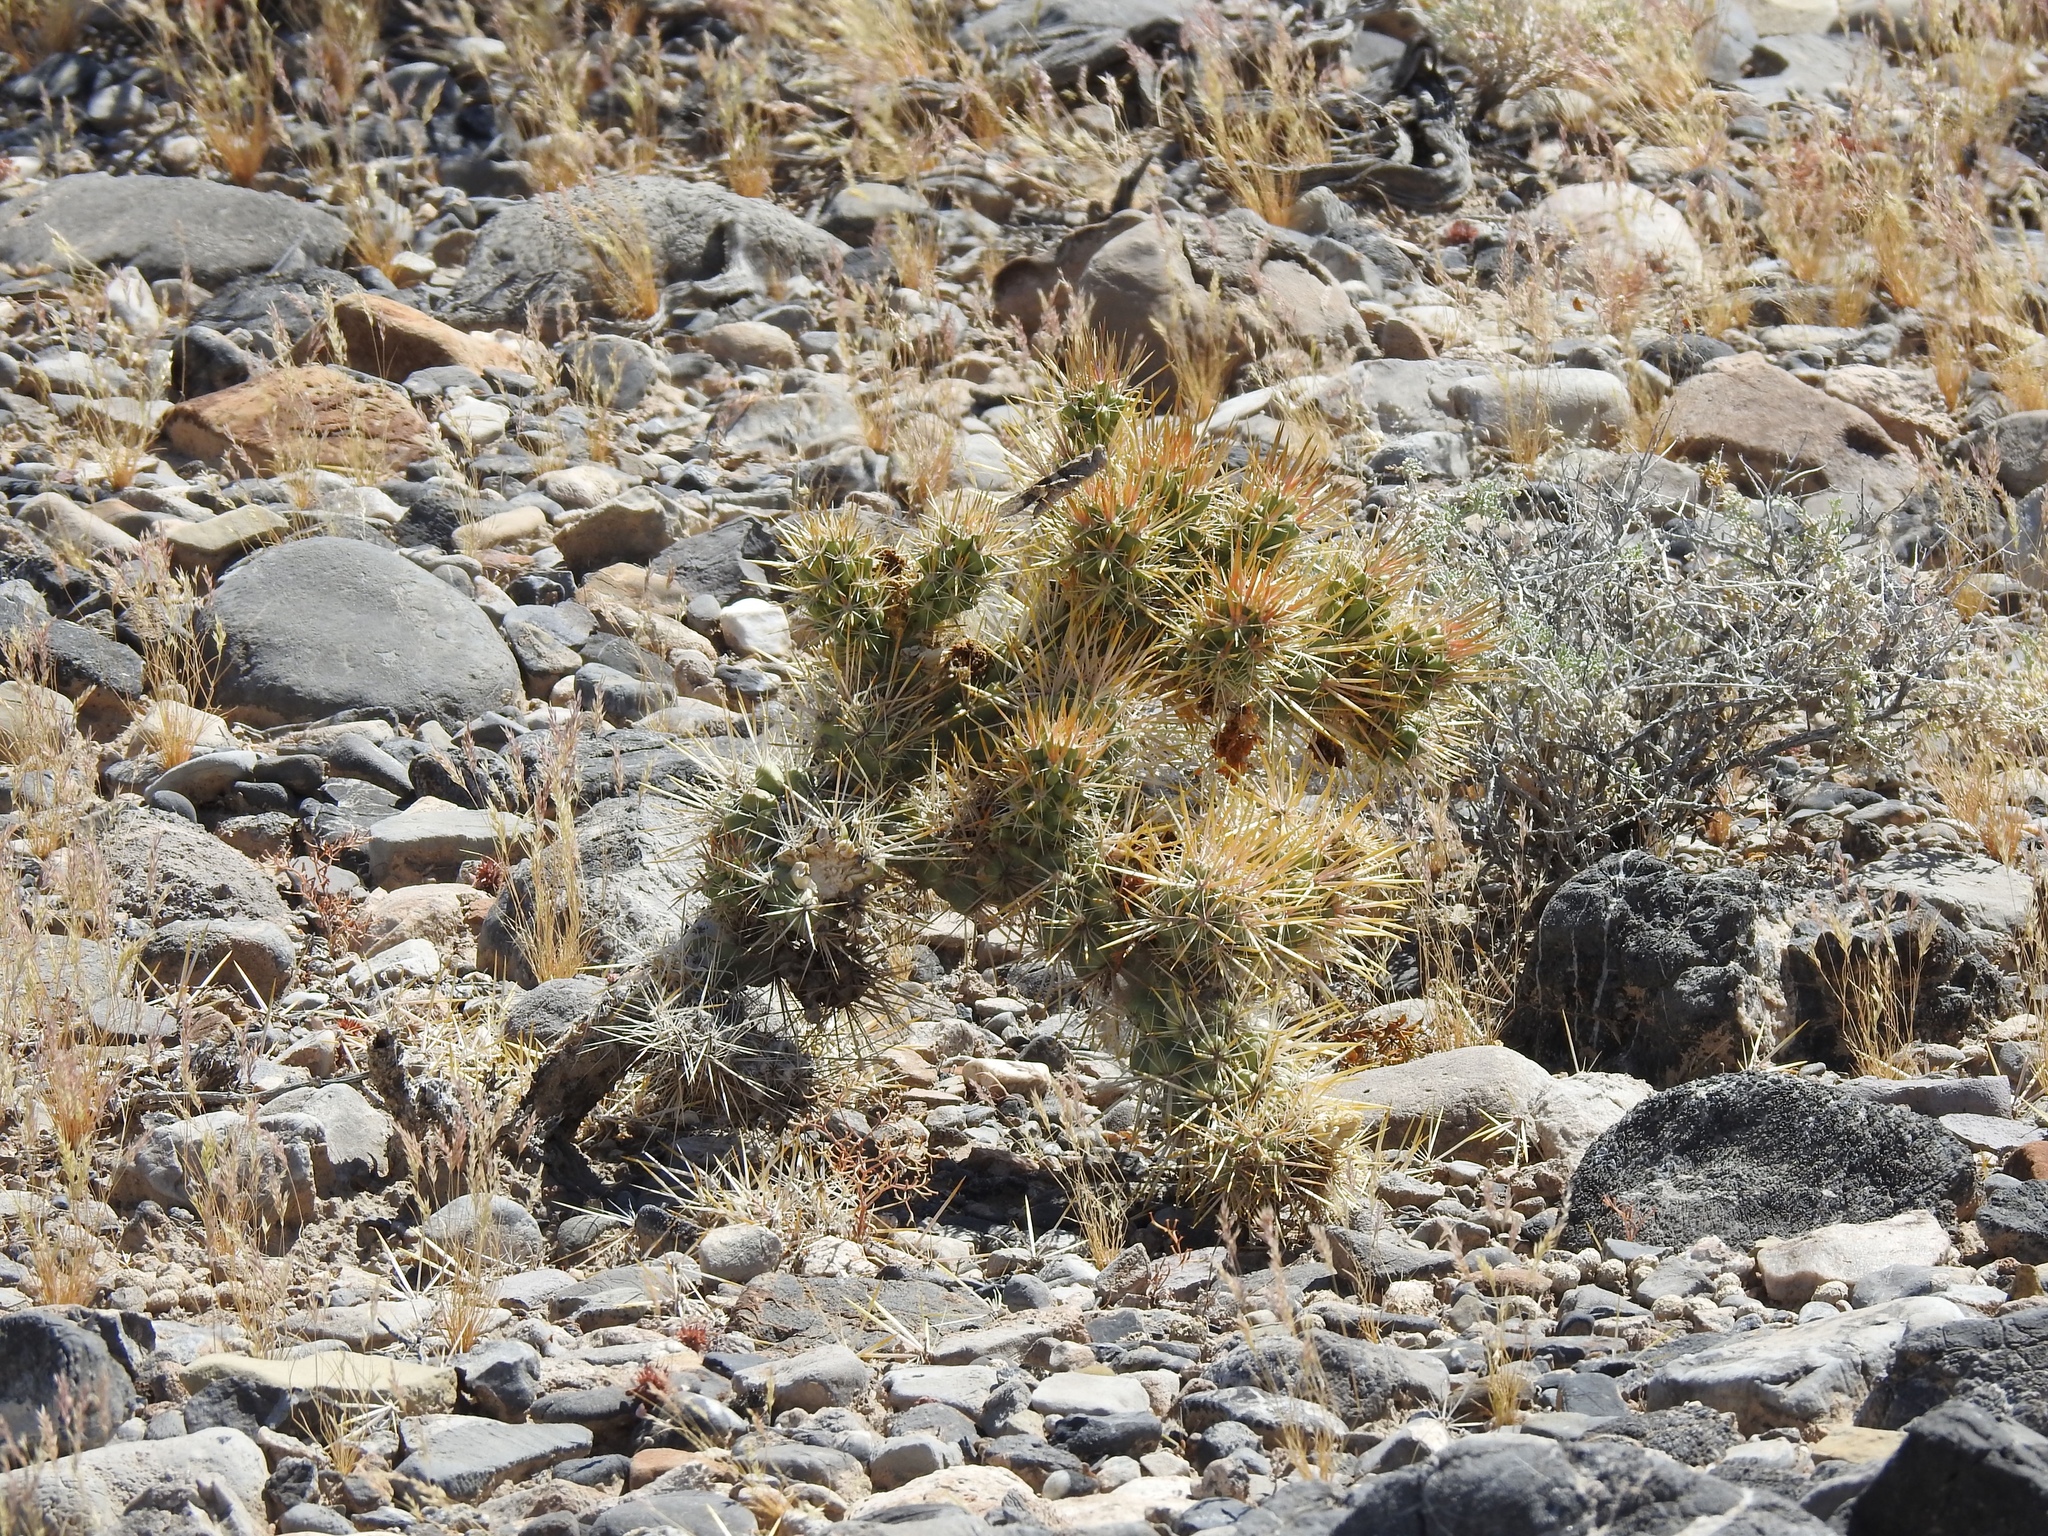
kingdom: Plantae
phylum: Tracheophyta
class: Magnoliopsida
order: Caryophyllales
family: Cactaceae
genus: Cylindropuntia
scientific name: Cylindropuntia echinocarpa
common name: Ground cholla
